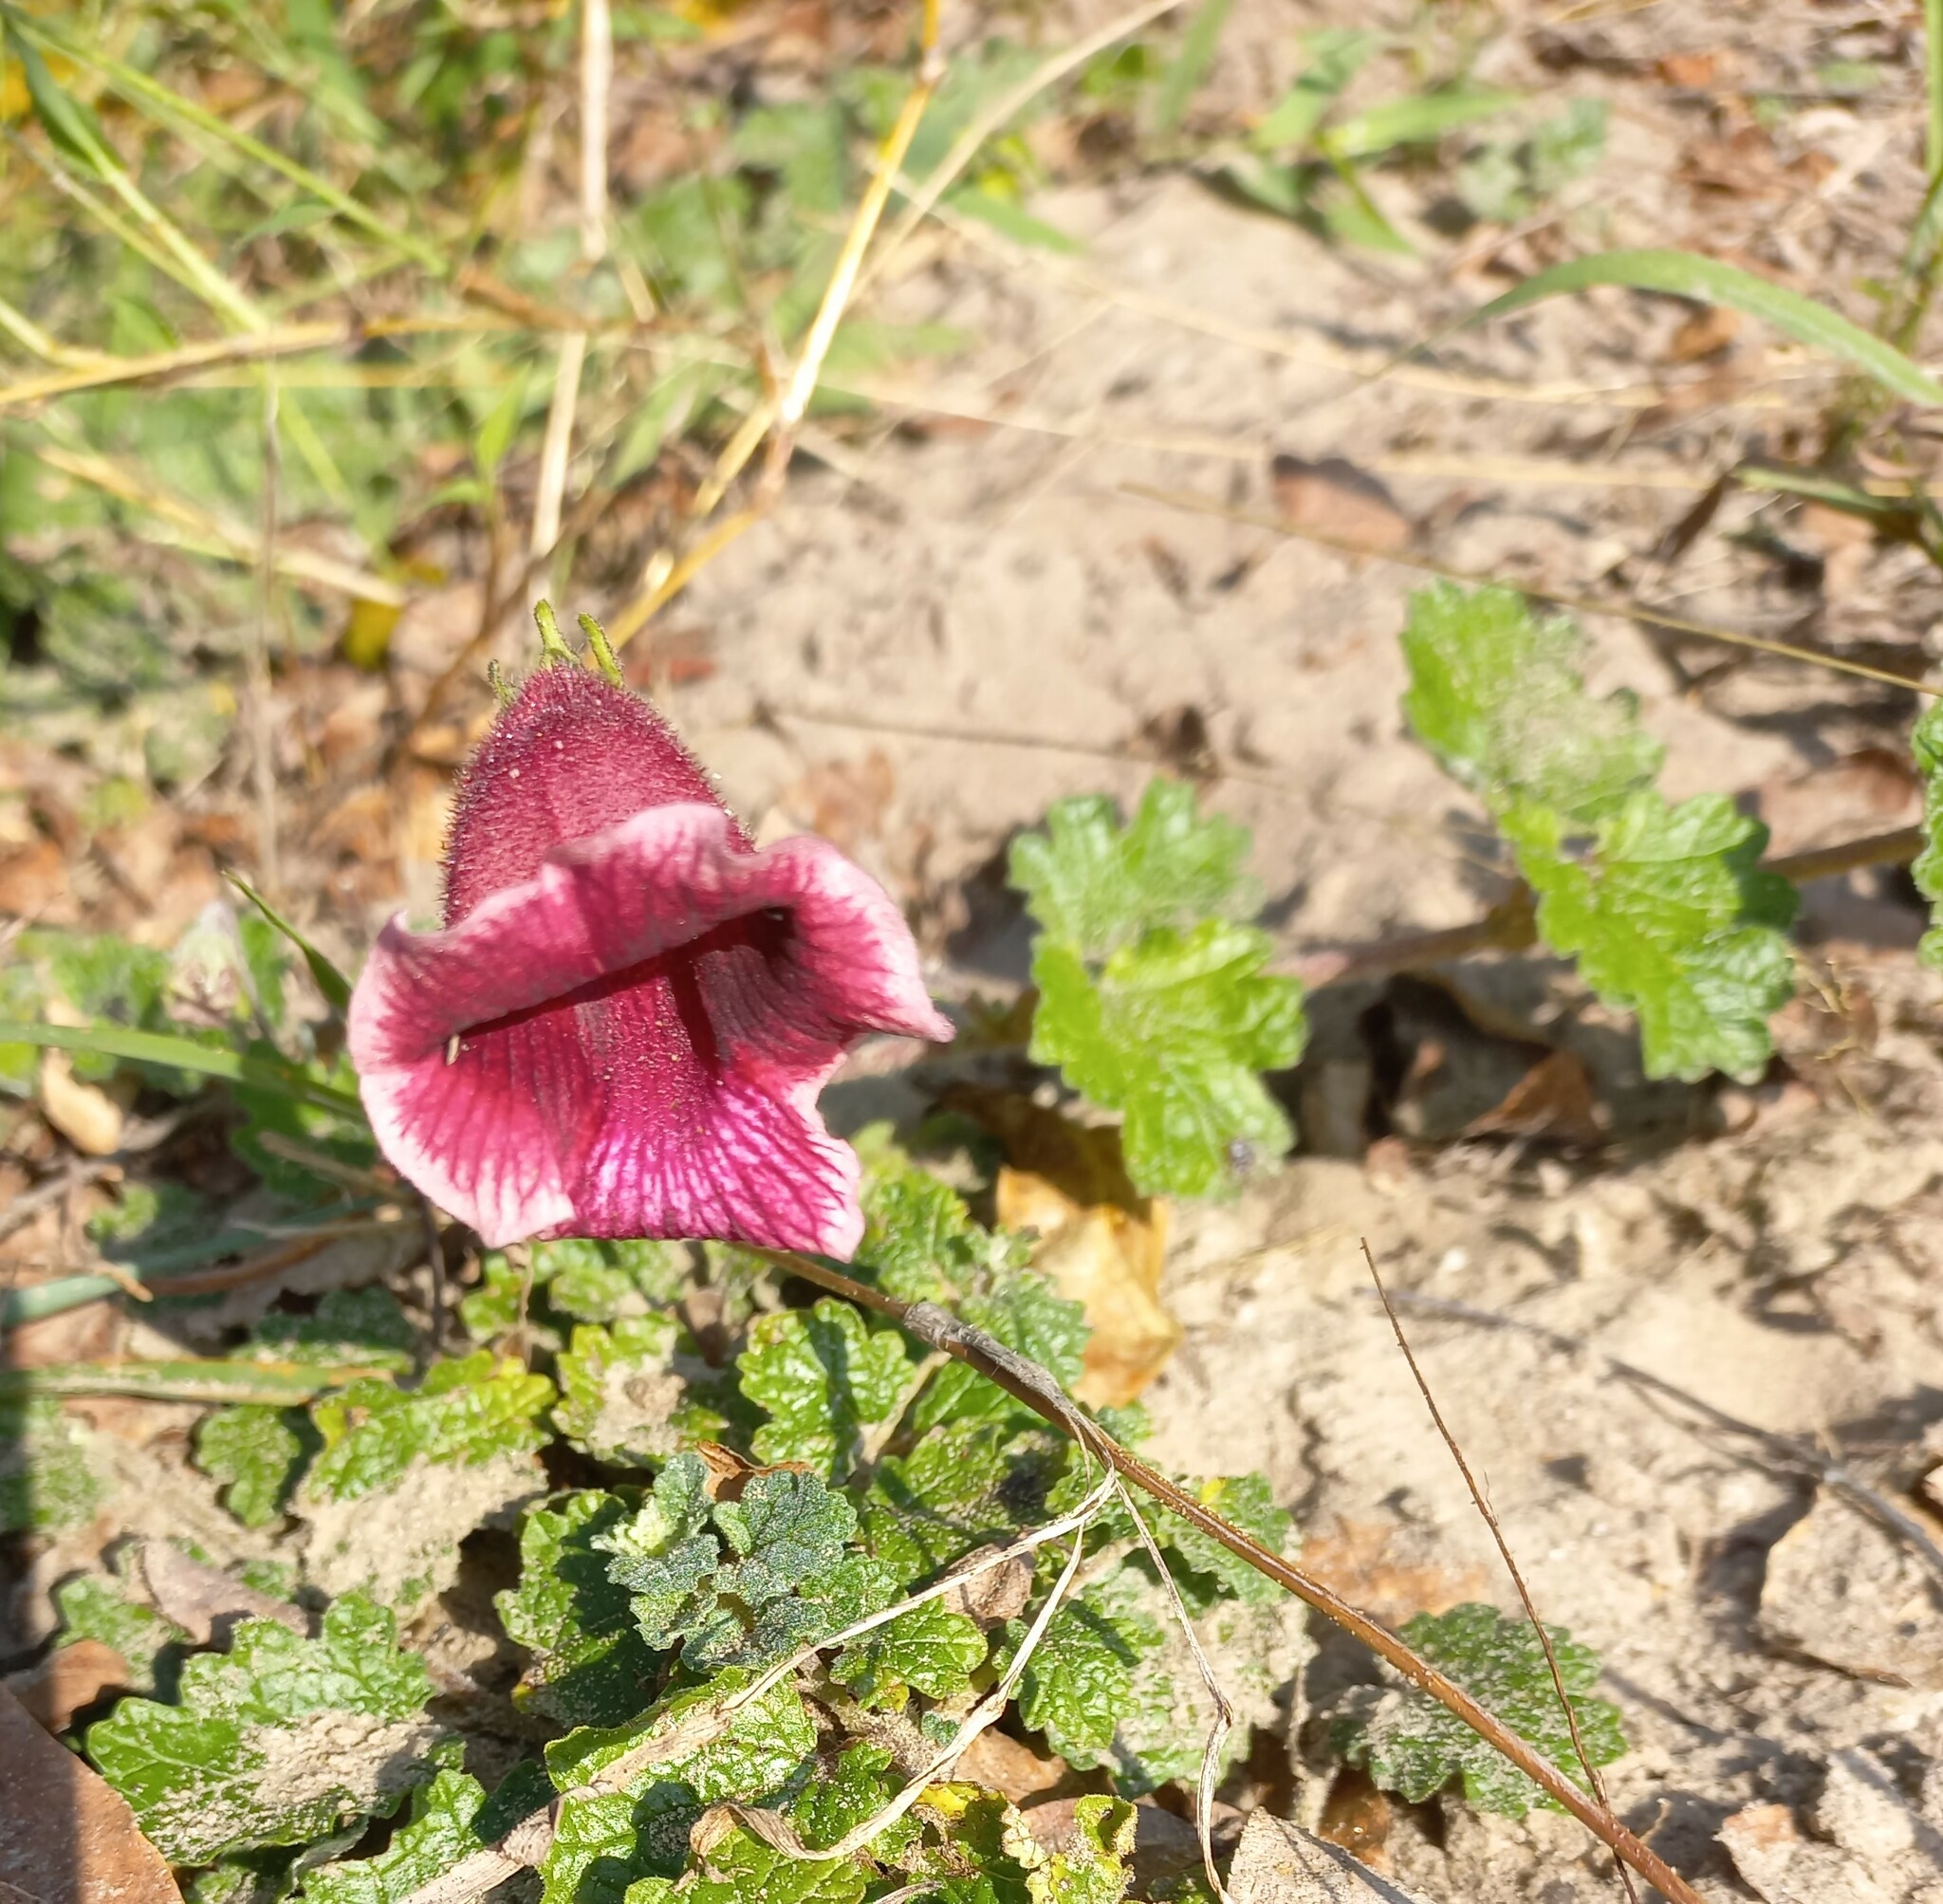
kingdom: Plantae
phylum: Tracheophyta
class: Magnoliopsida
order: Lamiales
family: Pedaliaceae
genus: Dicerocaryum
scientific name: Dicerocaryum forbesii
